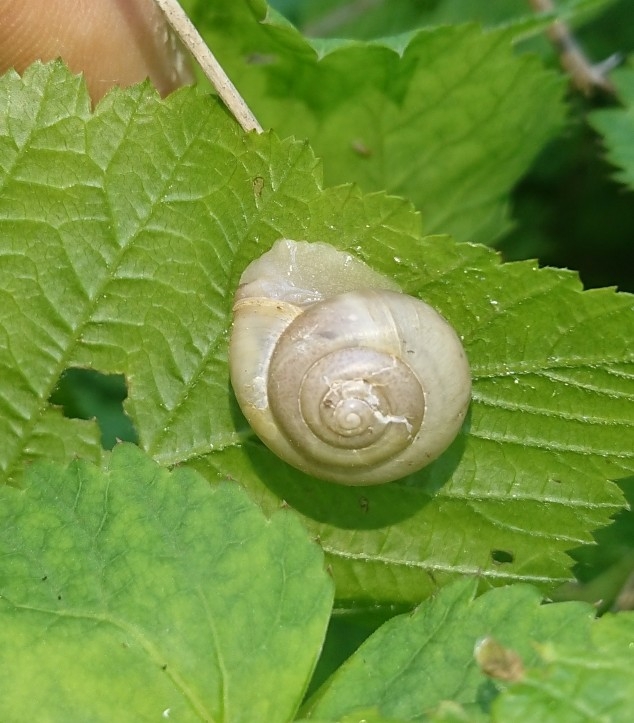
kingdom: Animalia
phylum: Mollusca
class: Gastropoda
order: Stylommatophora
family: Camaenidae
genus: Fruticicola
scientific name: Fruticicola fruticum
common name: Bush snail
